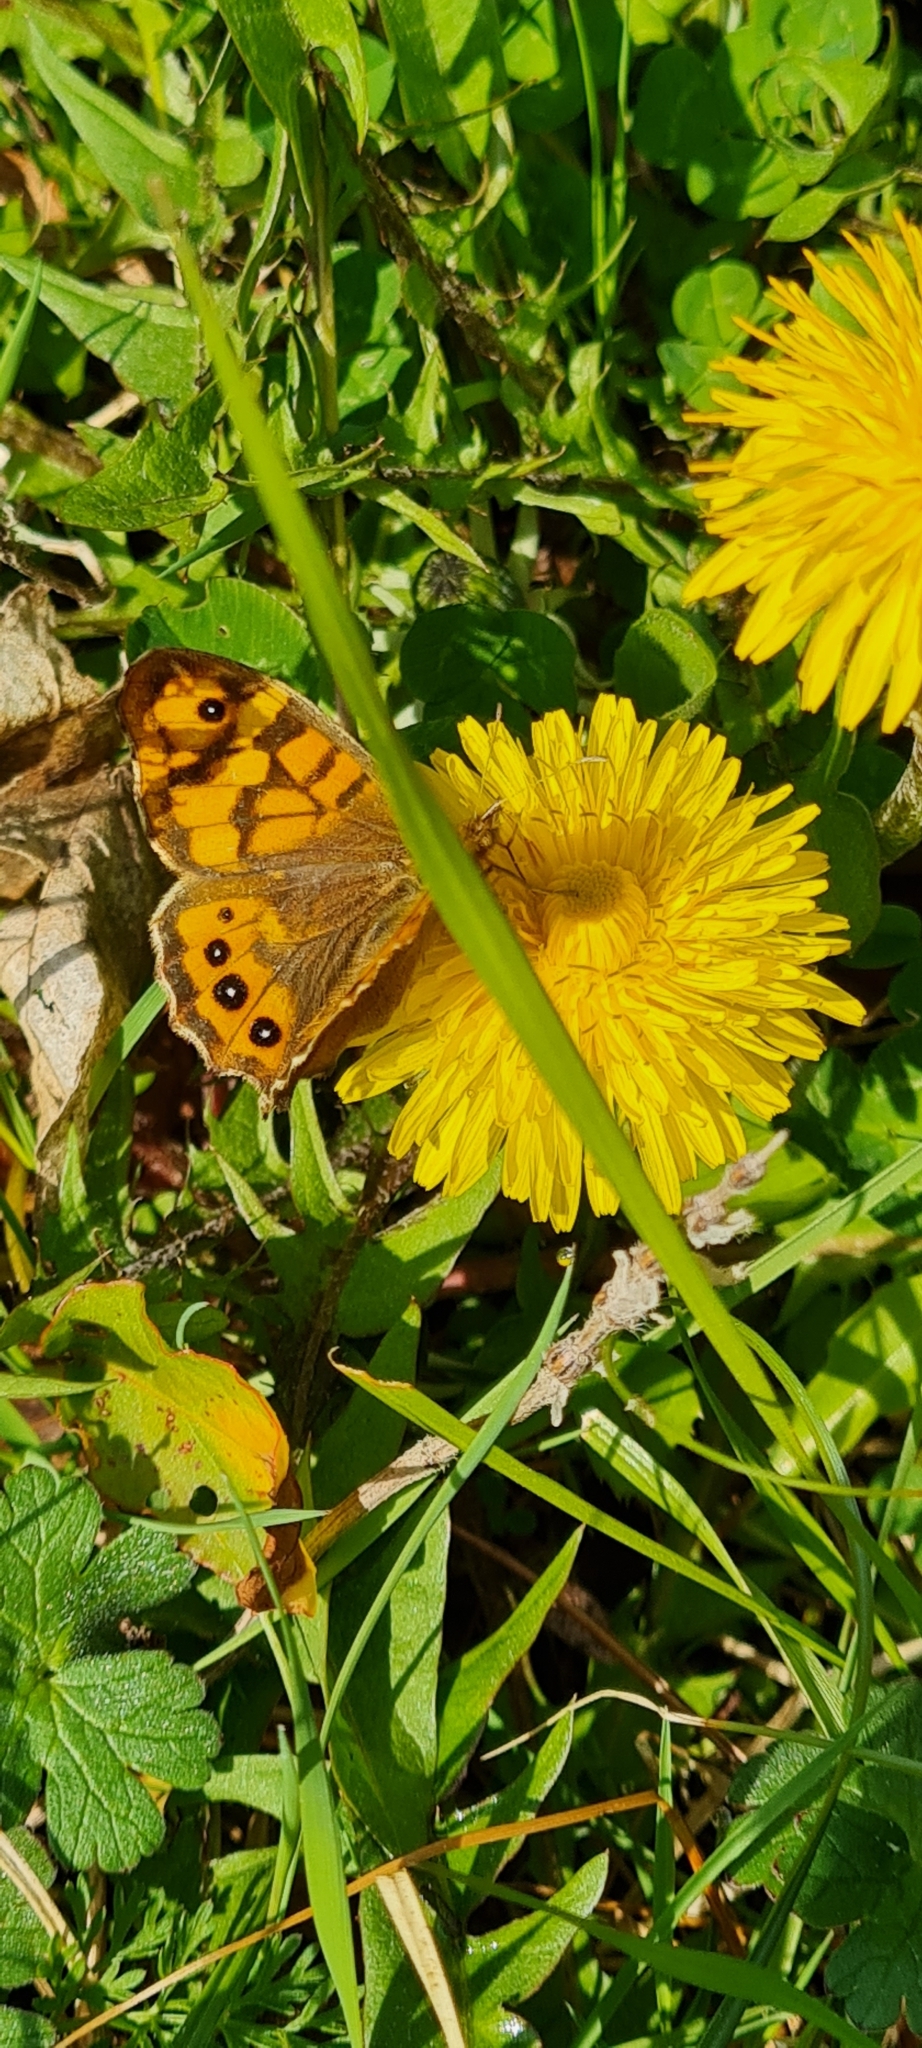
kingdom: Animalia
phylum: Arthropoda
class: Insecta
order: Lepidoptera
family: Nymphalidae
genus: Pararge
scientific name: Pararge aegeria
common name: Speckled wood
